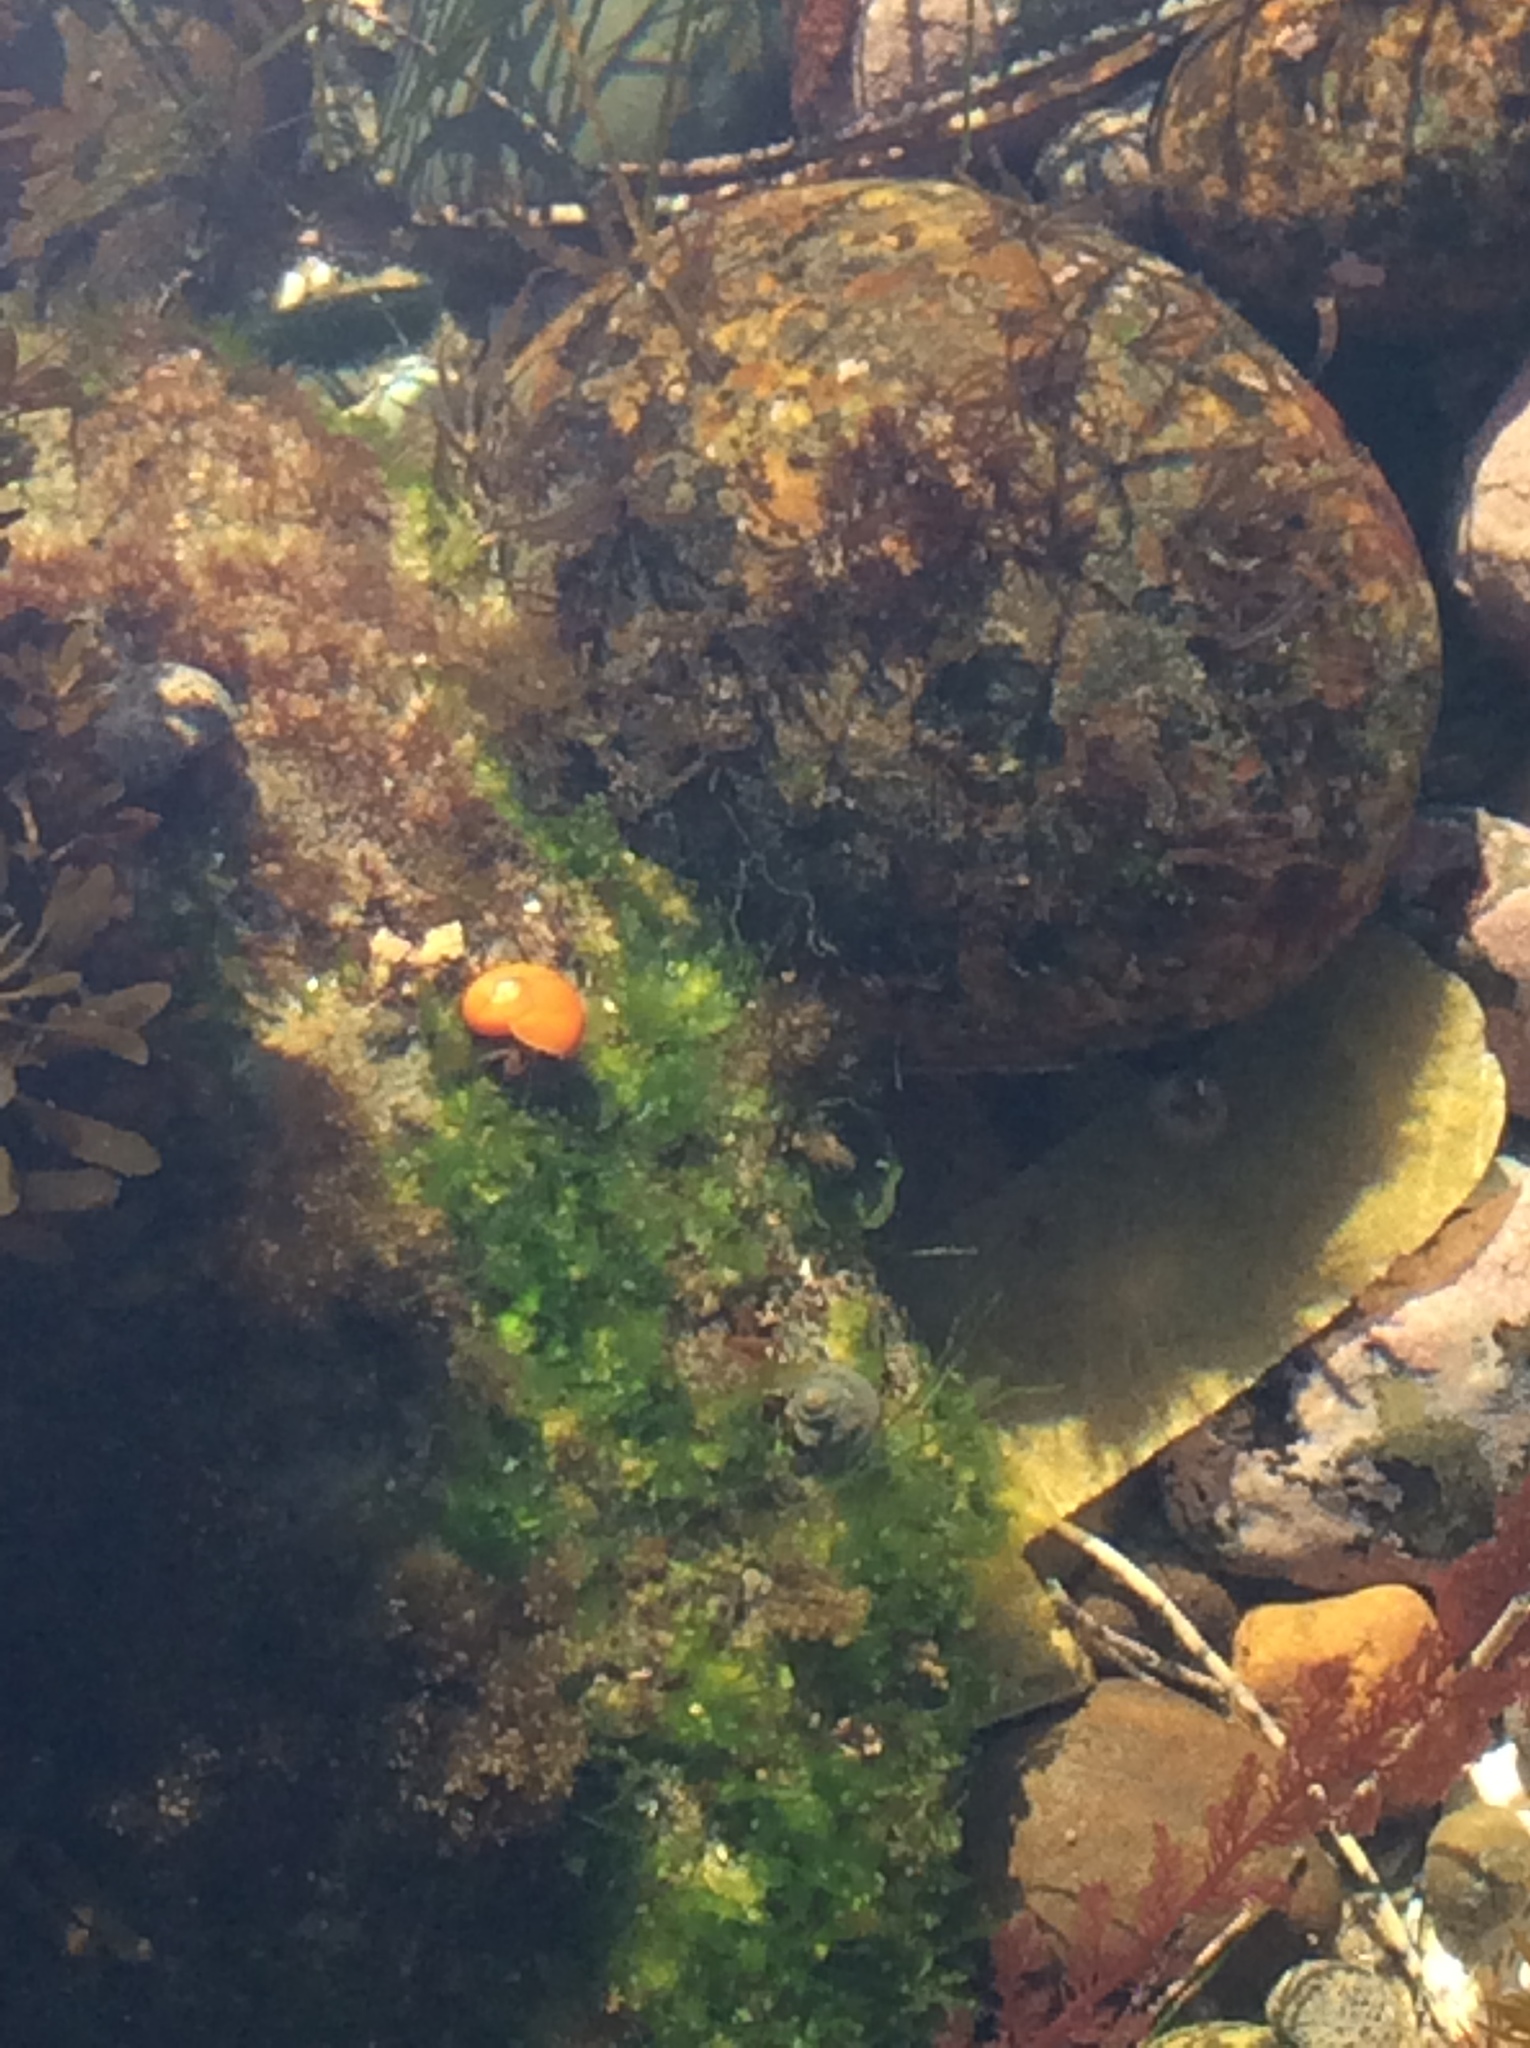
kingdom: Animalia
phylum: Mollusca
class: Gastropoda
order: Trochida
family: Tegulidae
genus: Norrisia
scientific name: Norrisia norrisii
